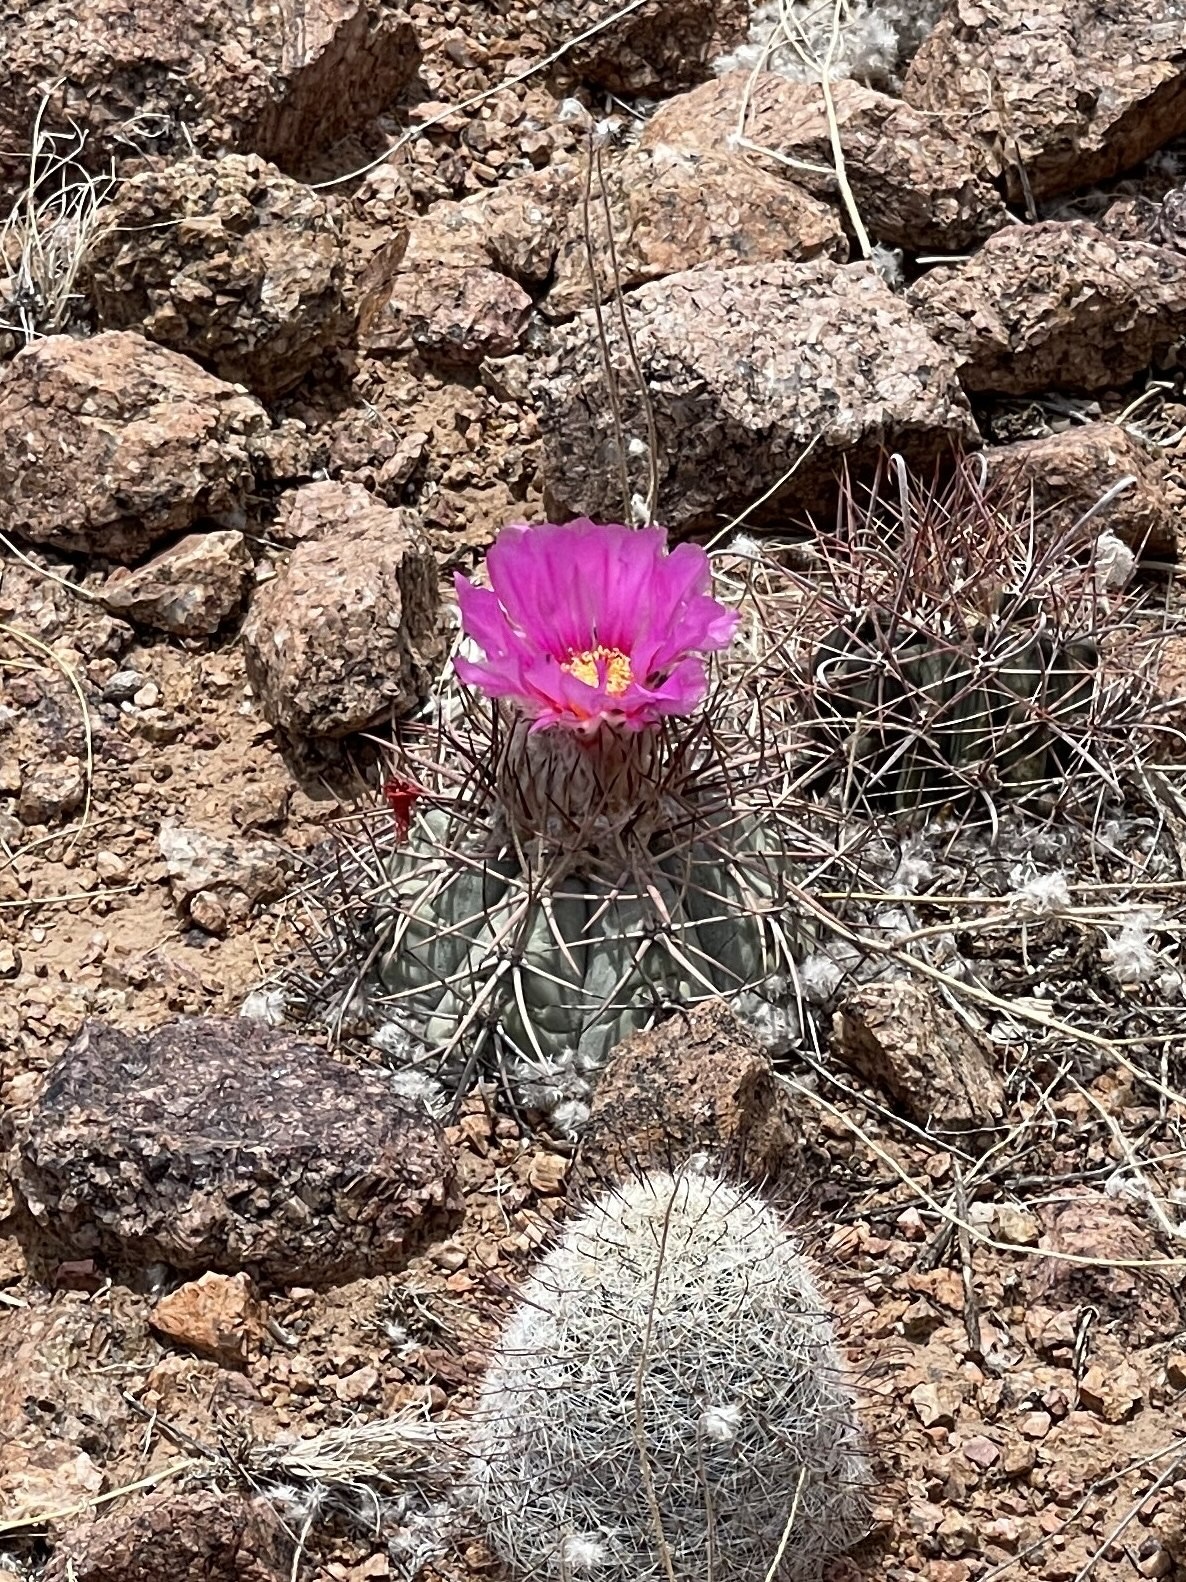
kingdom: Plantae
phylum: Tracheophyta
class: Magnoliopsida
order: Caryophyllales
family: Cactaceae
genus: Echinocactus
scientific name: Echinocactus horizonthalonius
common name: Devilshead
